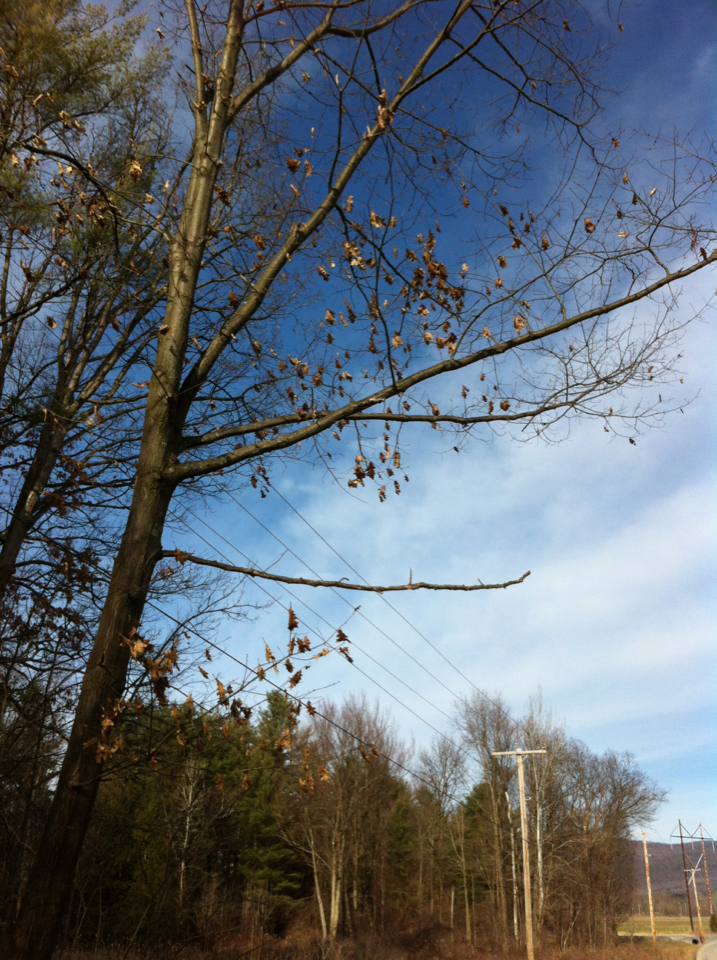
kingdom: Plantae
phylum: Tracheophyta
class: Magnoliopsida
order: Fagales
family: Fagaceae
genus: Quercus
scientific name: Quercus rubra
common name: Red oak
